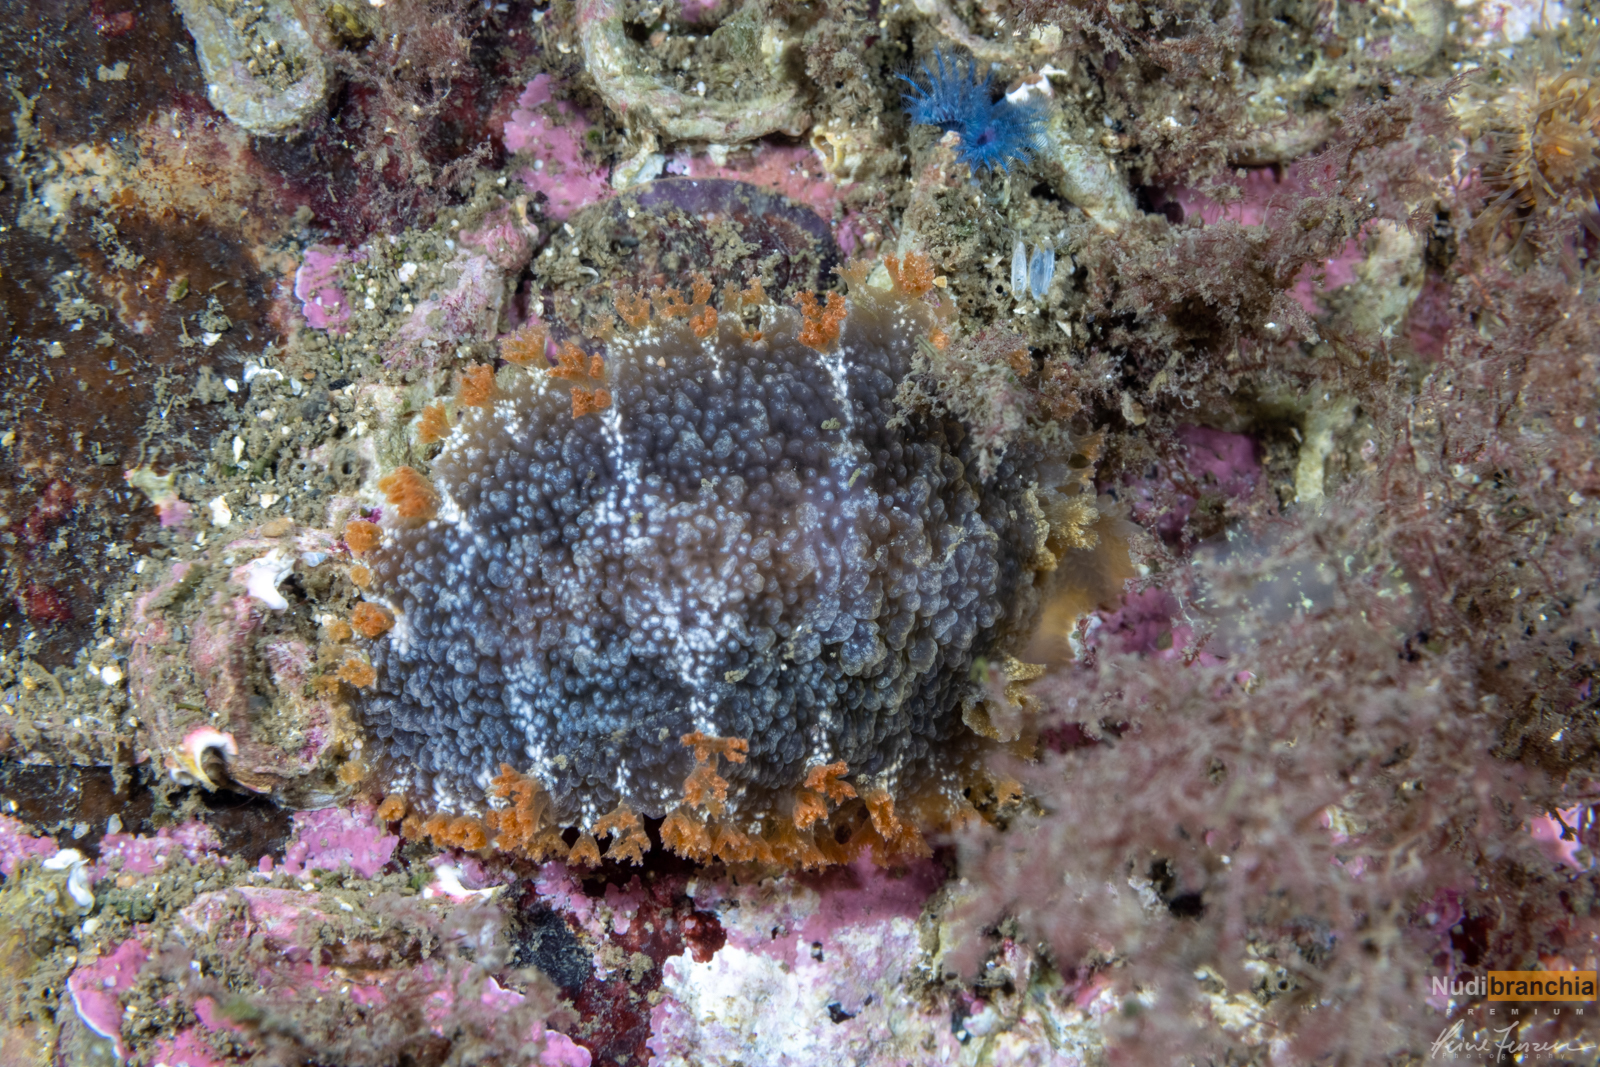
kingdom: Animalia
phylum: Mollusca
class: Gastropoda
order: Nudibranchia
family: Tritoniidae
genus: Tritonia
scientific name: Tritonia hombergii
